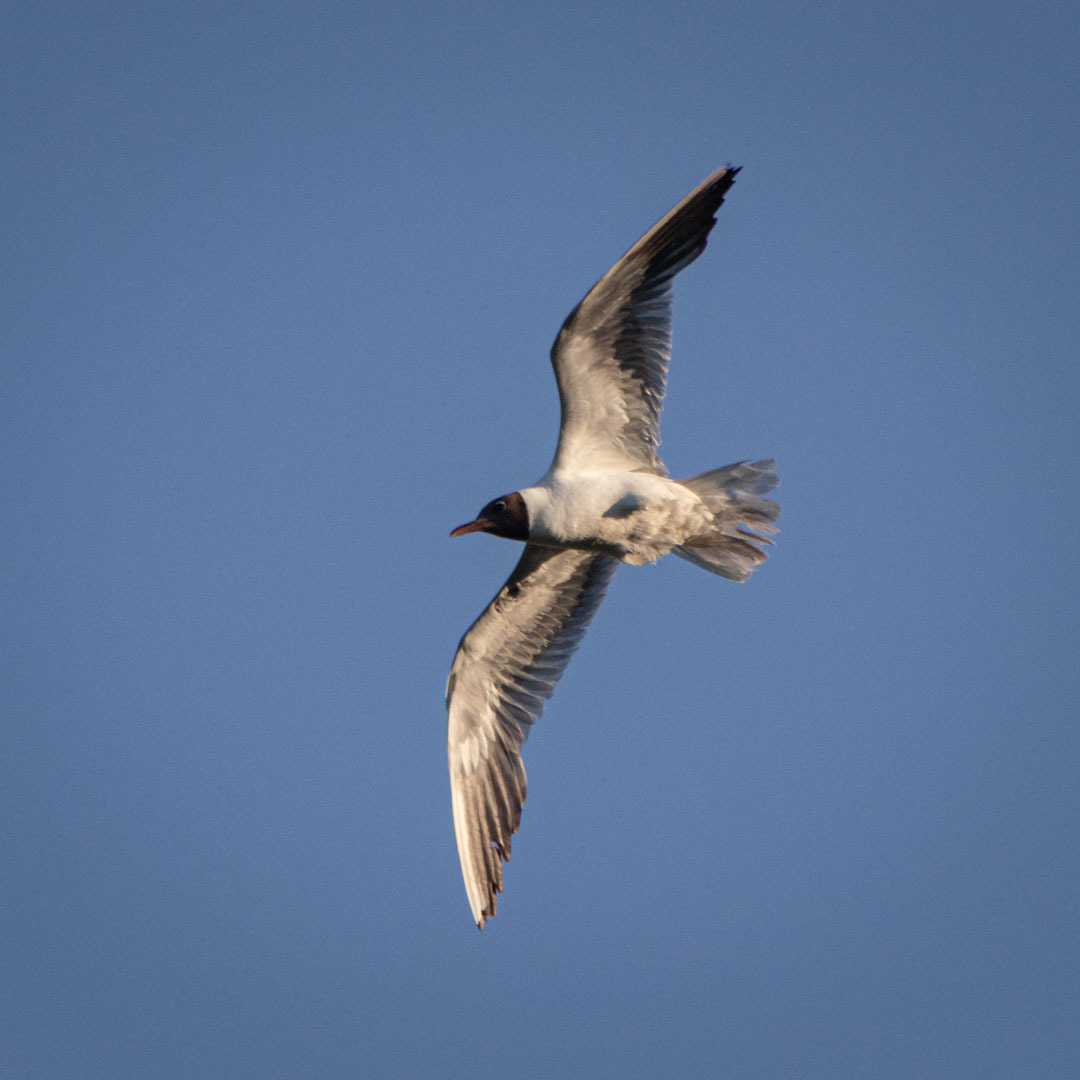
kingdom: Animalia
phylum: Chordata
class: Aves
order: Charadriiformes
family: Laridae
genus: Chroicocephalus
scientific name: Chroicocephalus ridibundus
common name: Black-headed gull
